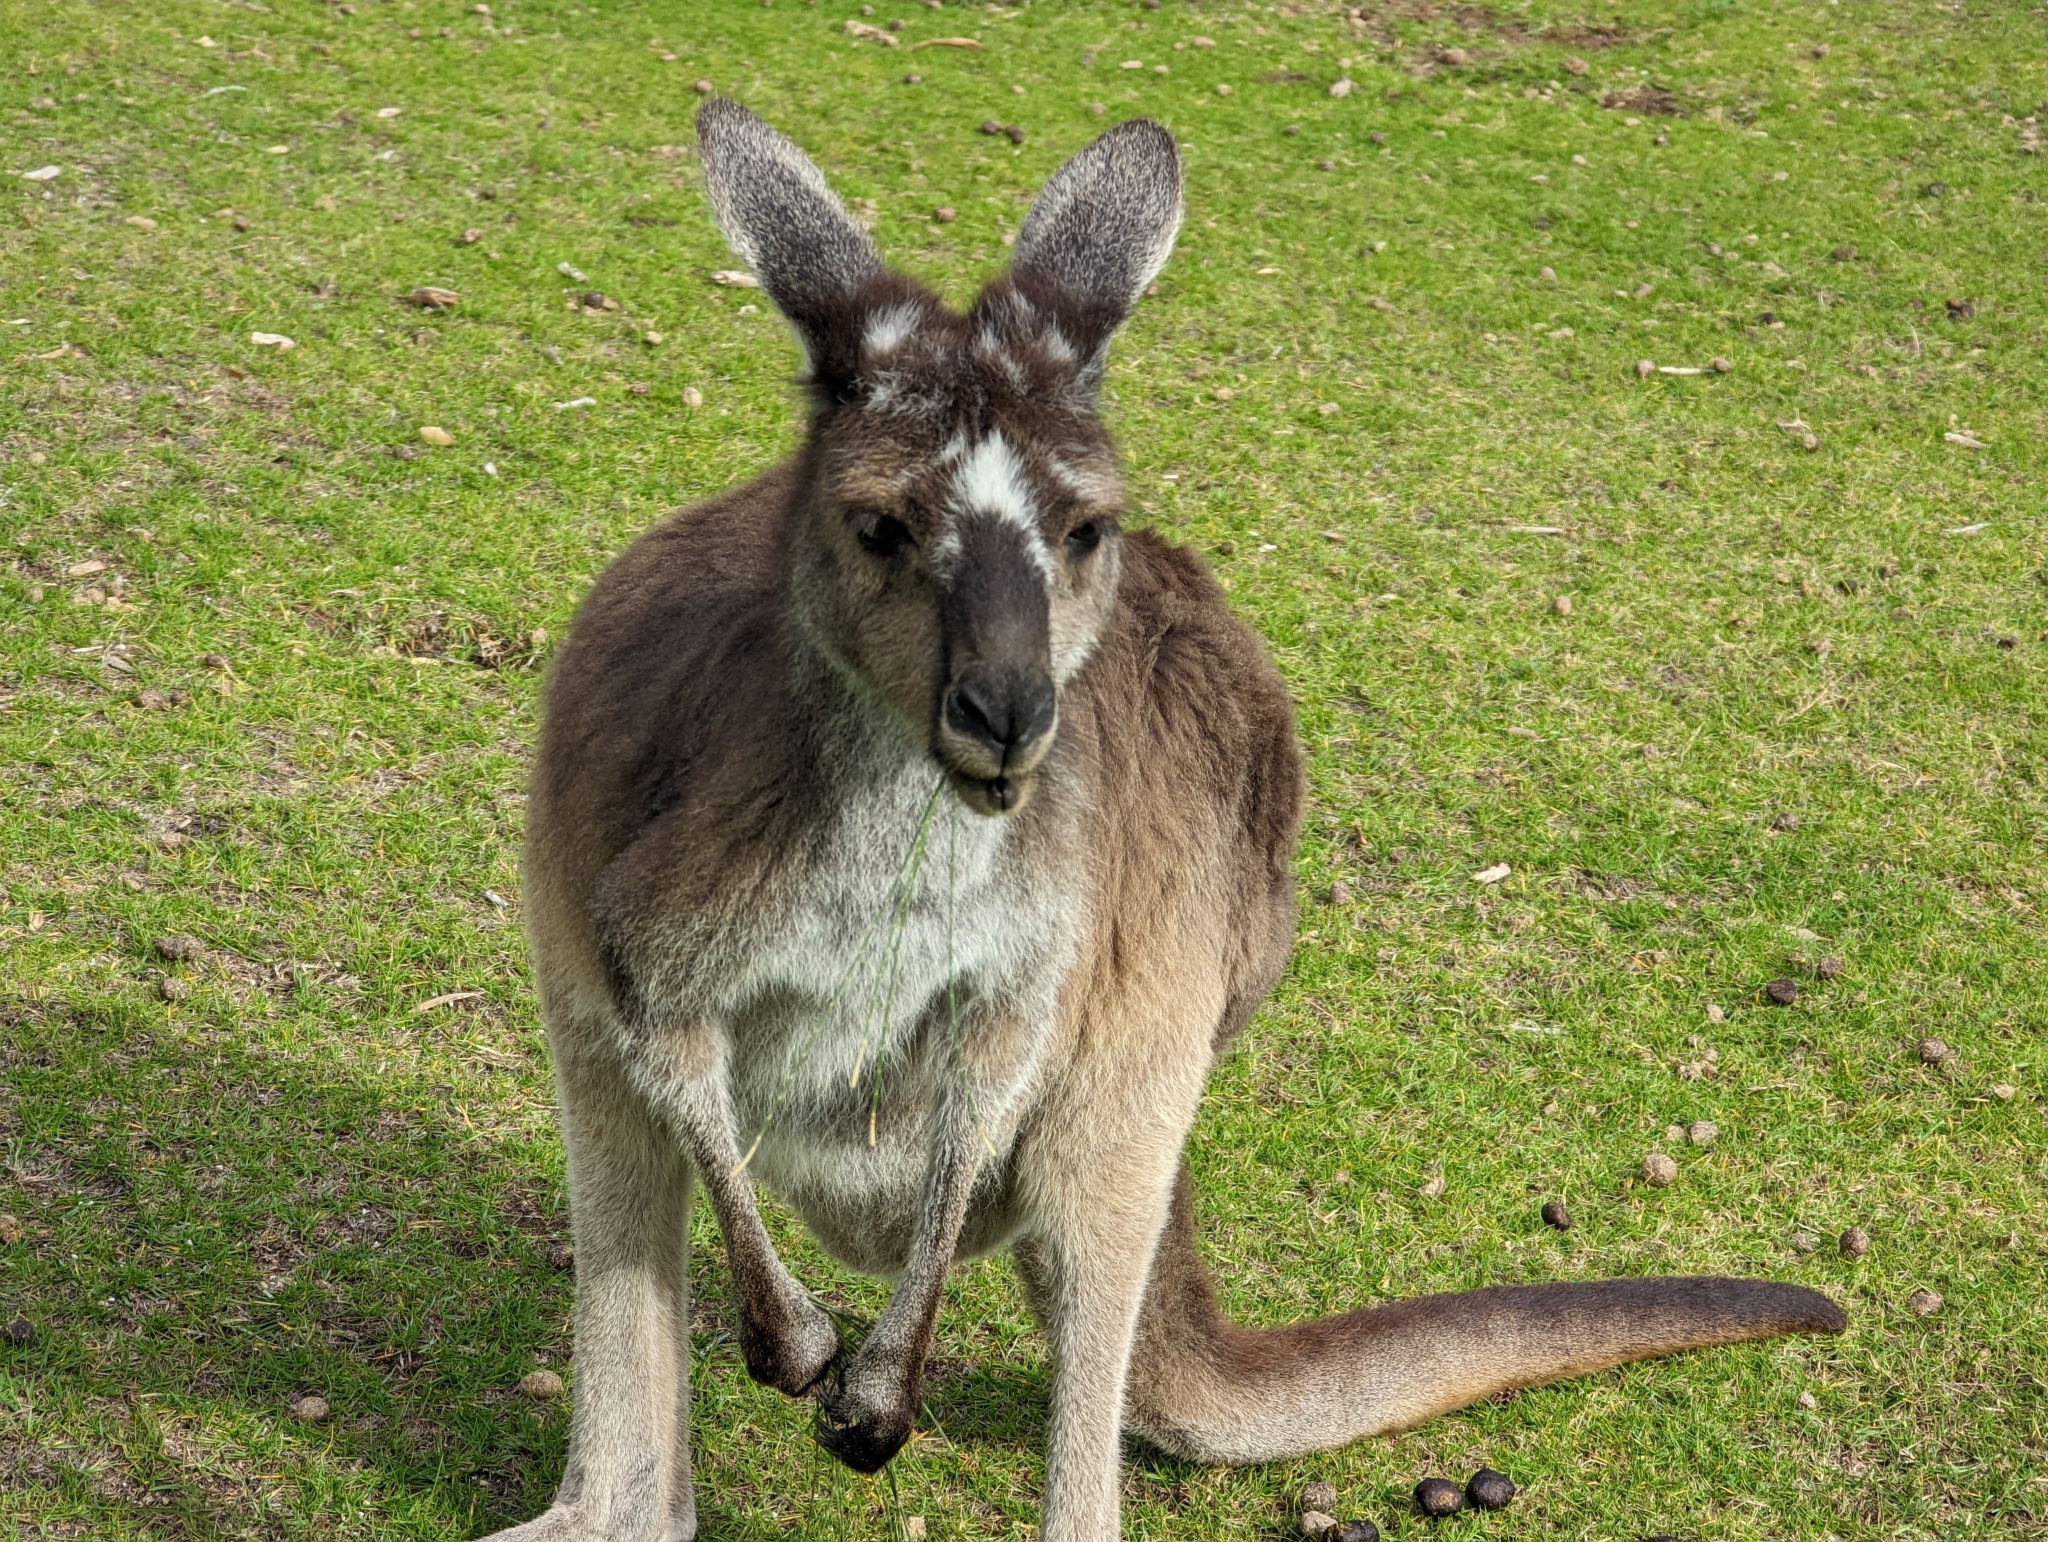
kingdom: Animalia
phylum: Chordata
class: Mammalia
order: Diprotodontia
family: Macropodidae
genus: Macropus
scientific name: Macropus fuliginosus
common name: Western grey kangaroo
